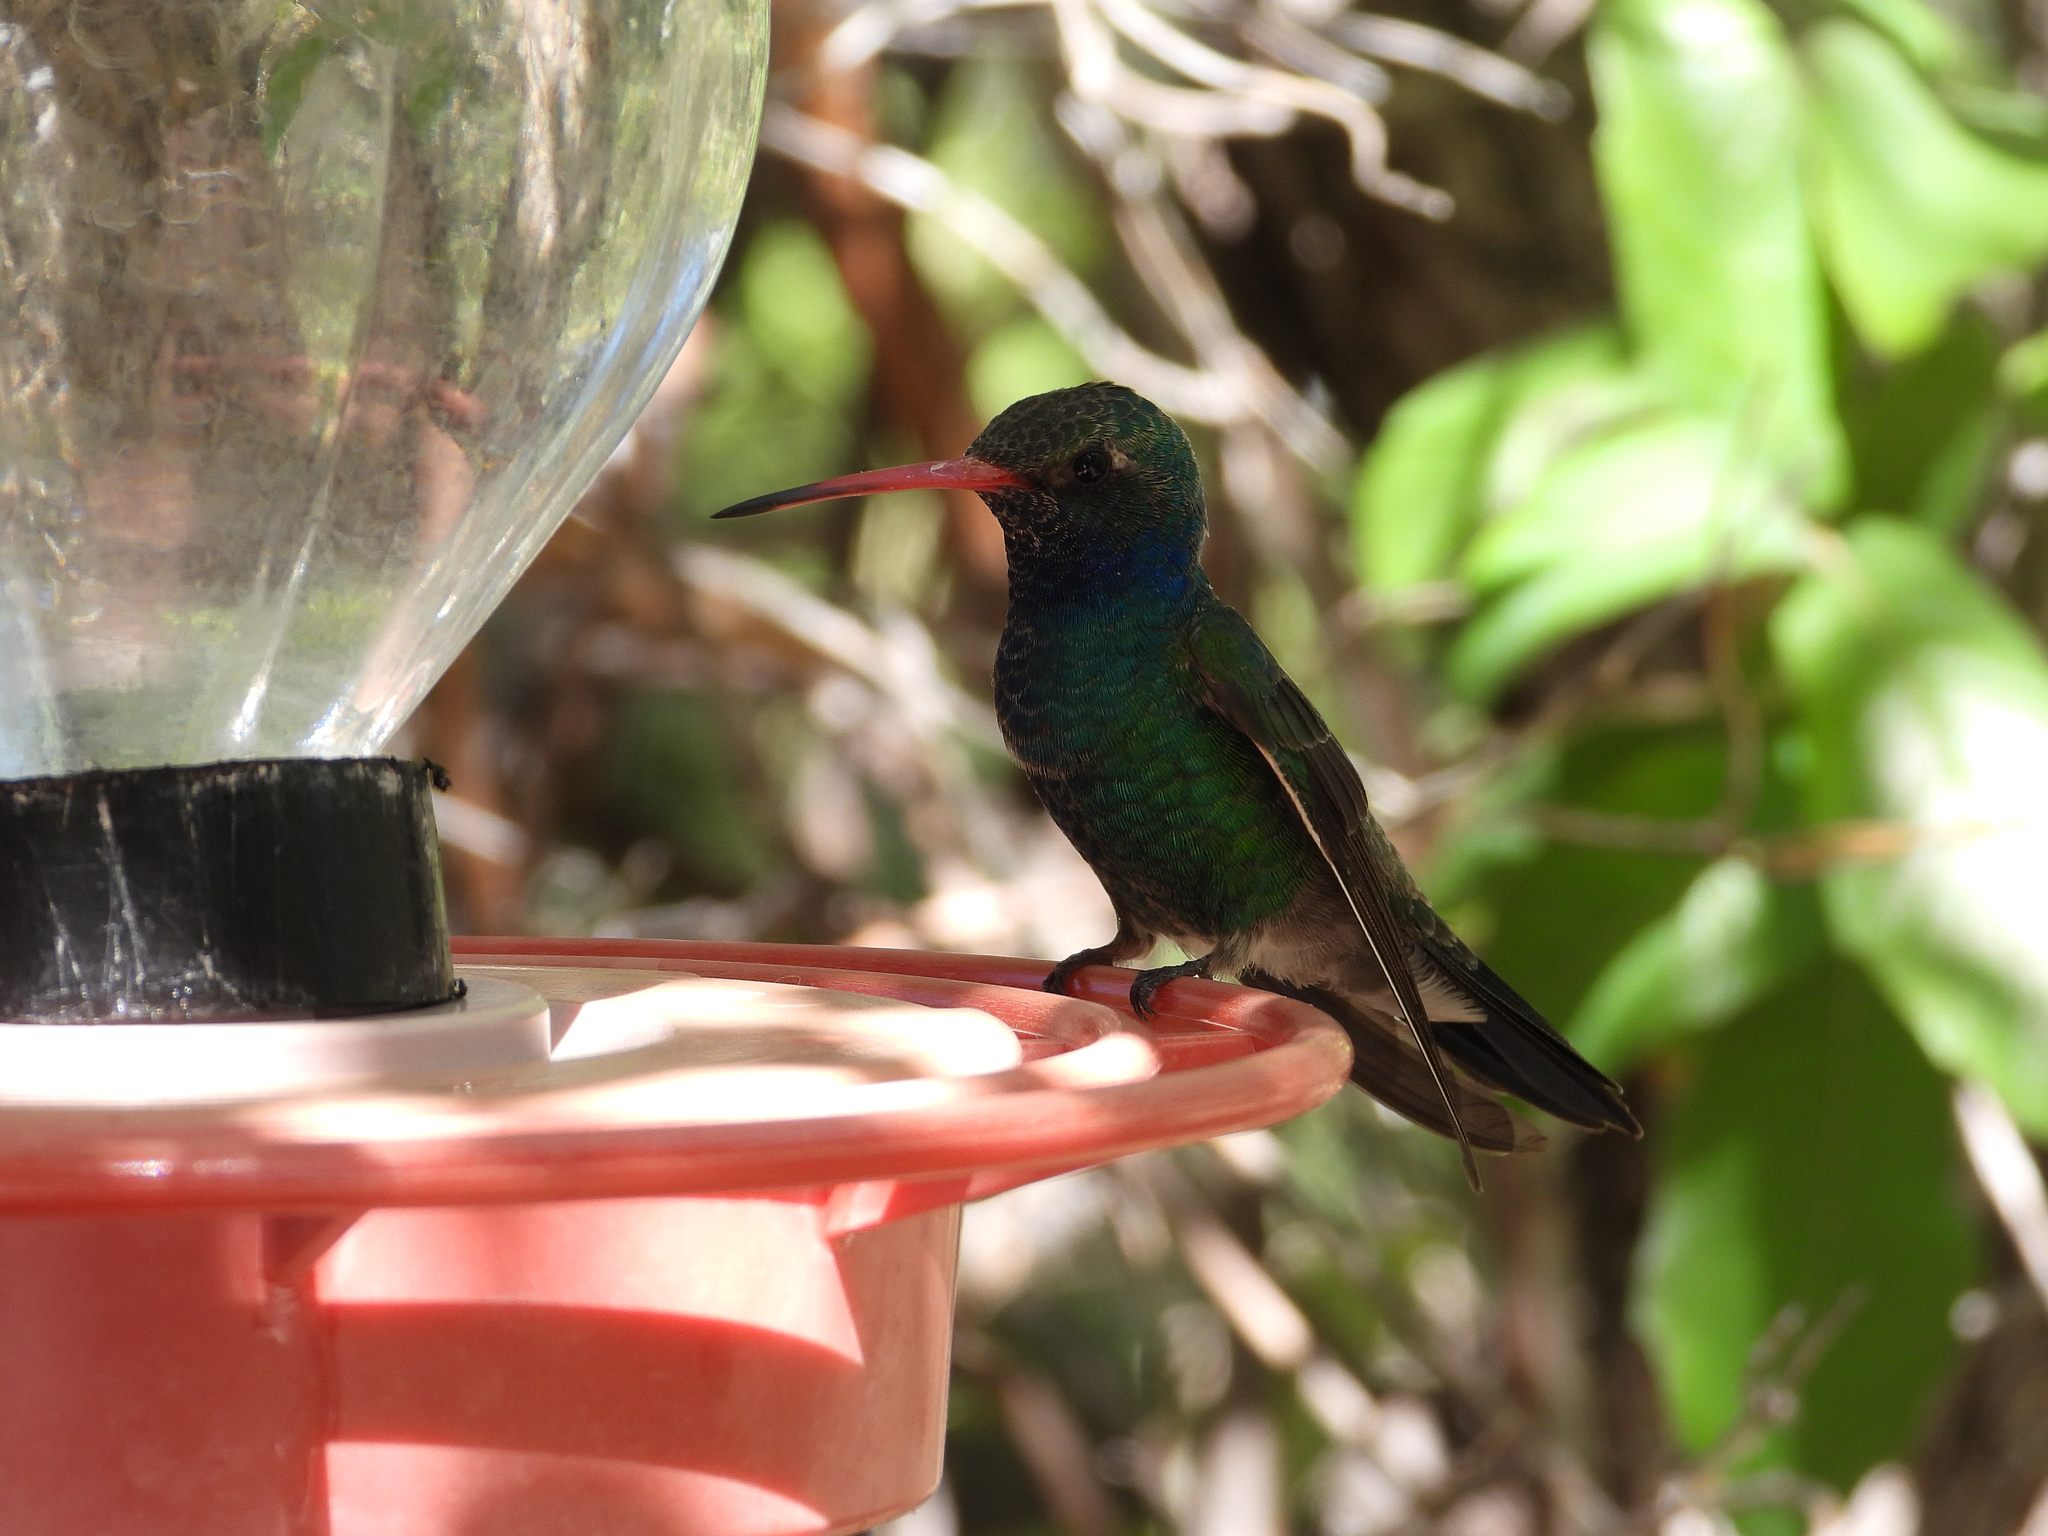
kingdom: Animalia
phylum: Chordata
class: Aves
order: Apodiformes
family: Trochilidae
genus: Cynanthus
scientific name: Cynanthus latirostris
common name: Broad-billed hummingbird
